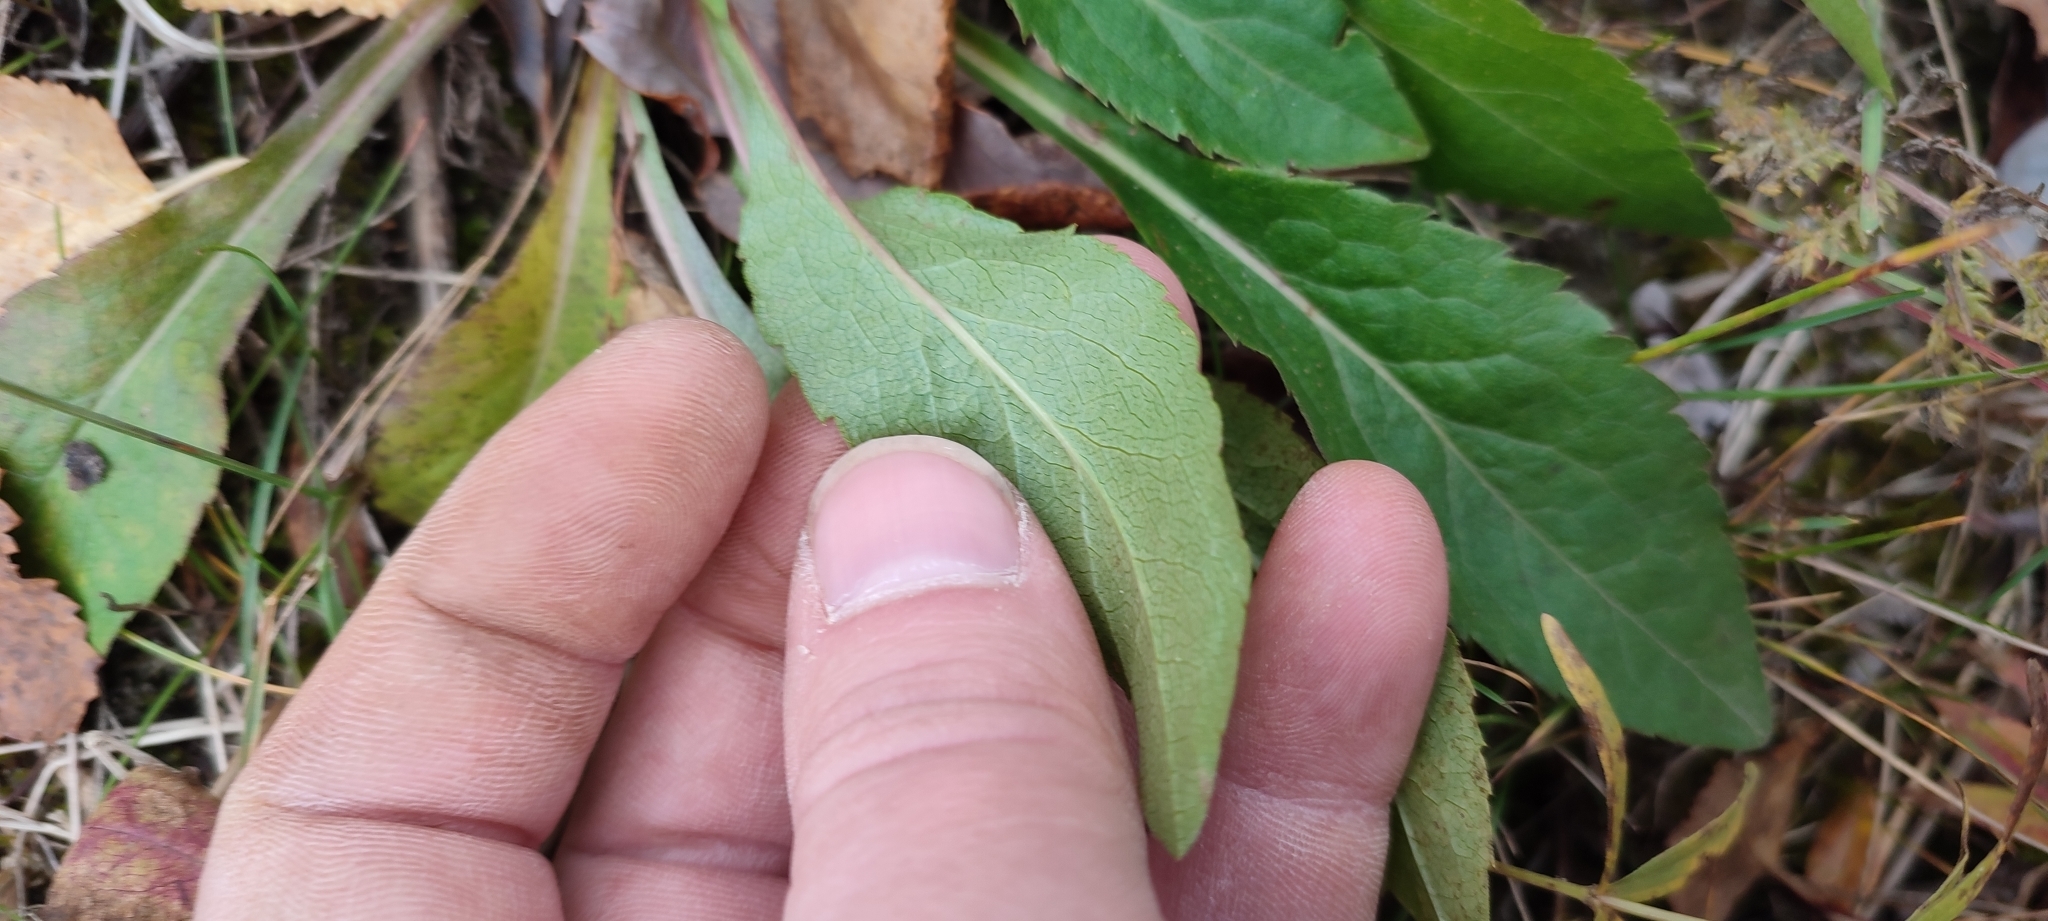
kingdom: Plantae
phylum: Tracheophyta
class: Magnoliopsida
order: Asterales
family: Asteraceae
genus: Solidago
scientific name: Solidago virgaurea
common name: Goldenrod
